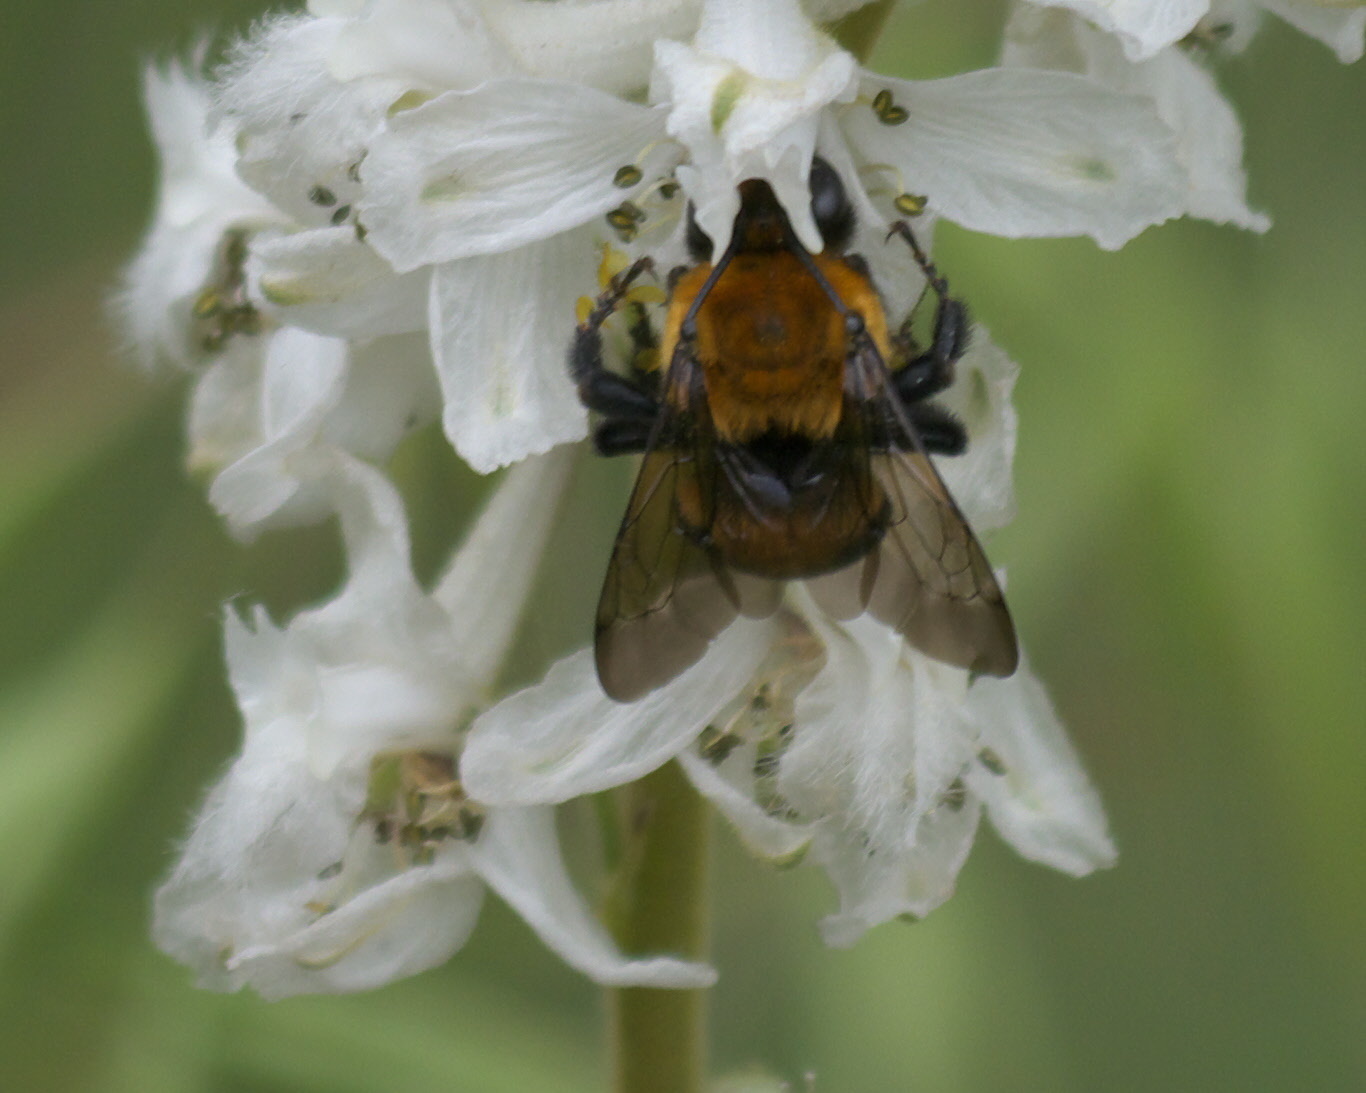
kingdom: Animalia
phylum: Arthropoda
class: Insecta
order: Hymenoptera
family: Apidae
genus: Anthophora
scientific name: Anthophora bomboides
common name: Bumble-bee-mimic digger bee
